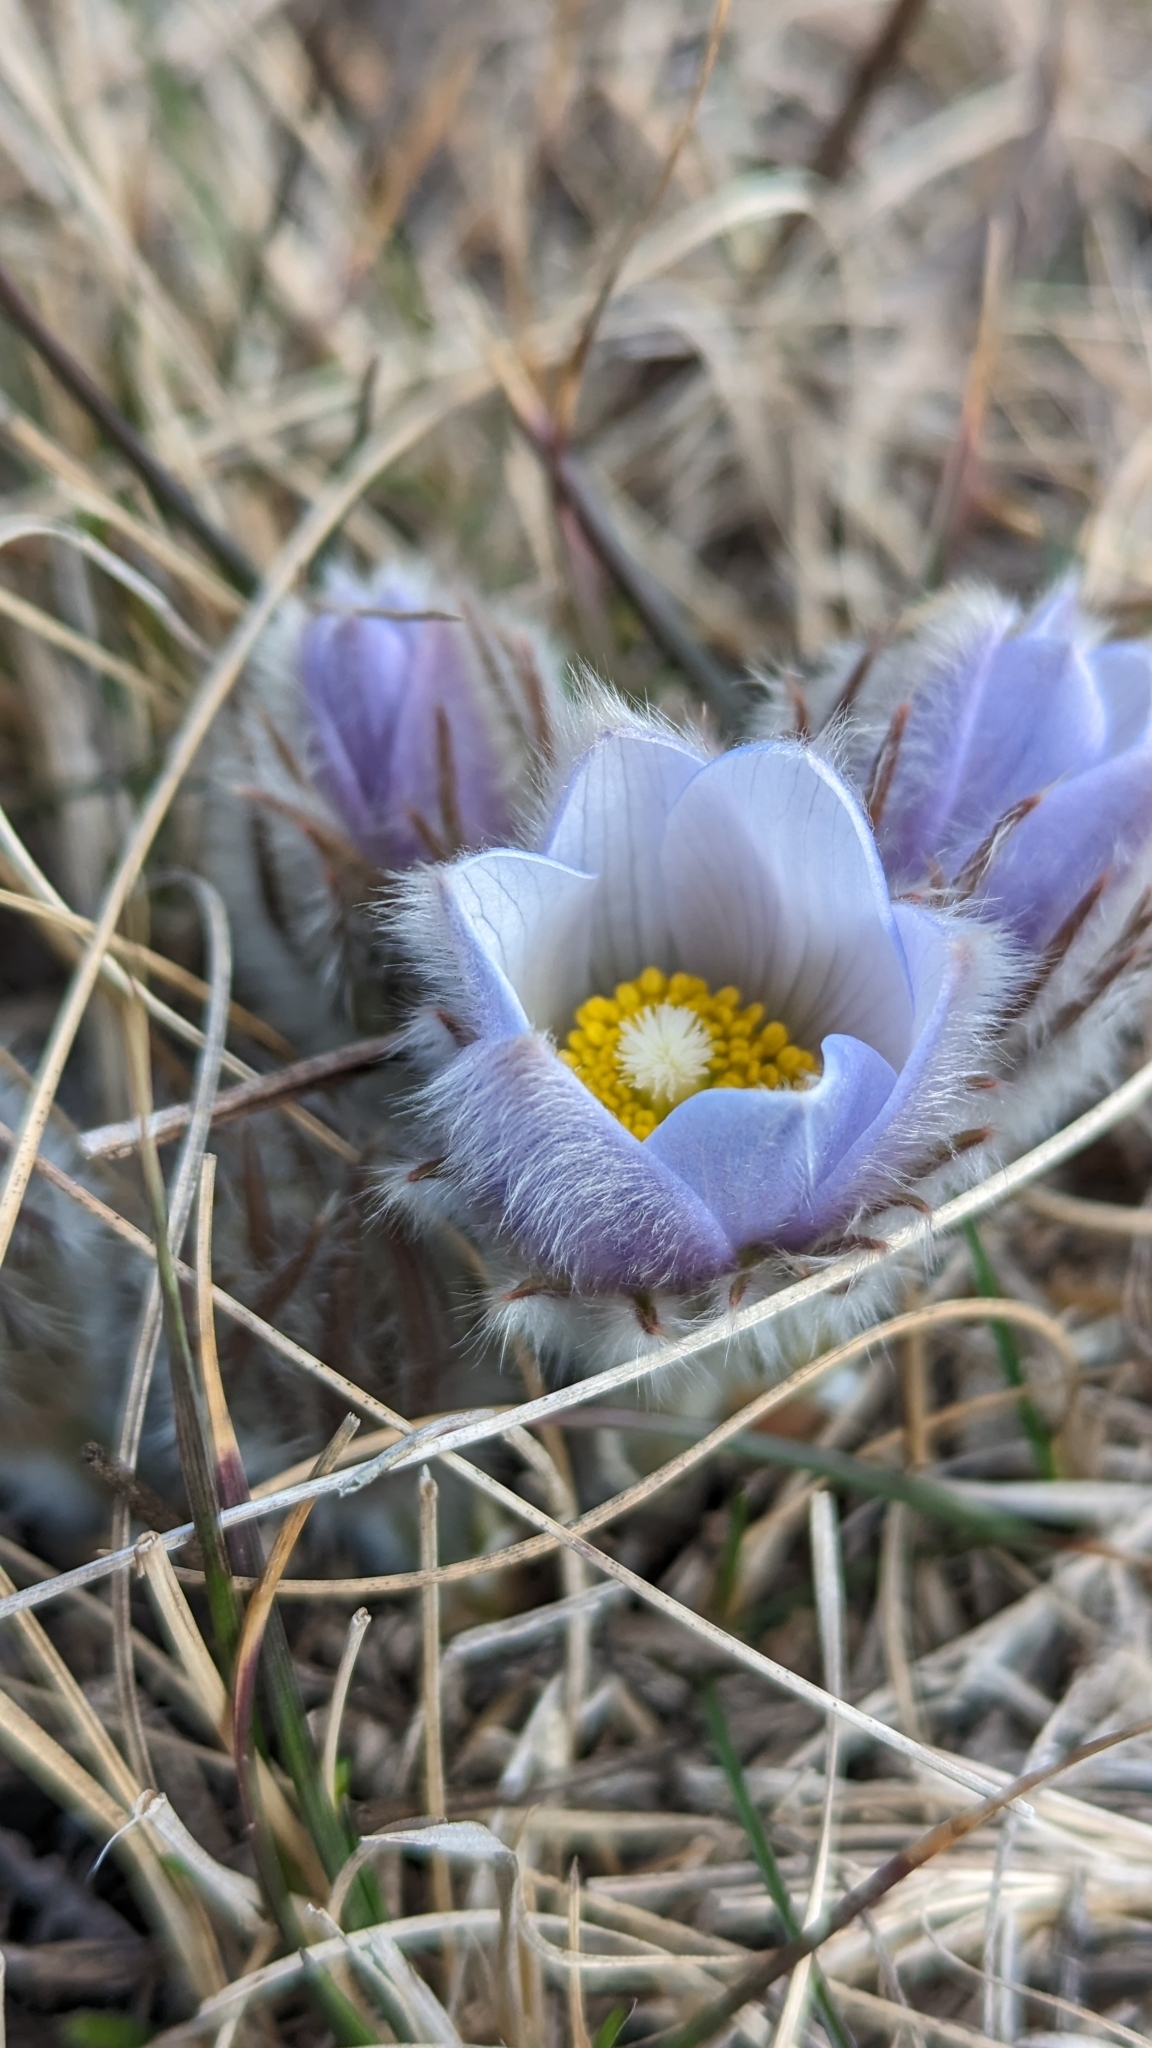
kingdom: Plantae
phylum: Tracheophyta
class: Magnoliopsida
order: Ranunculales
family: Ranunculaceae
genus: Pulsatilla
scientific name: Pulsatilla nuttalliana
